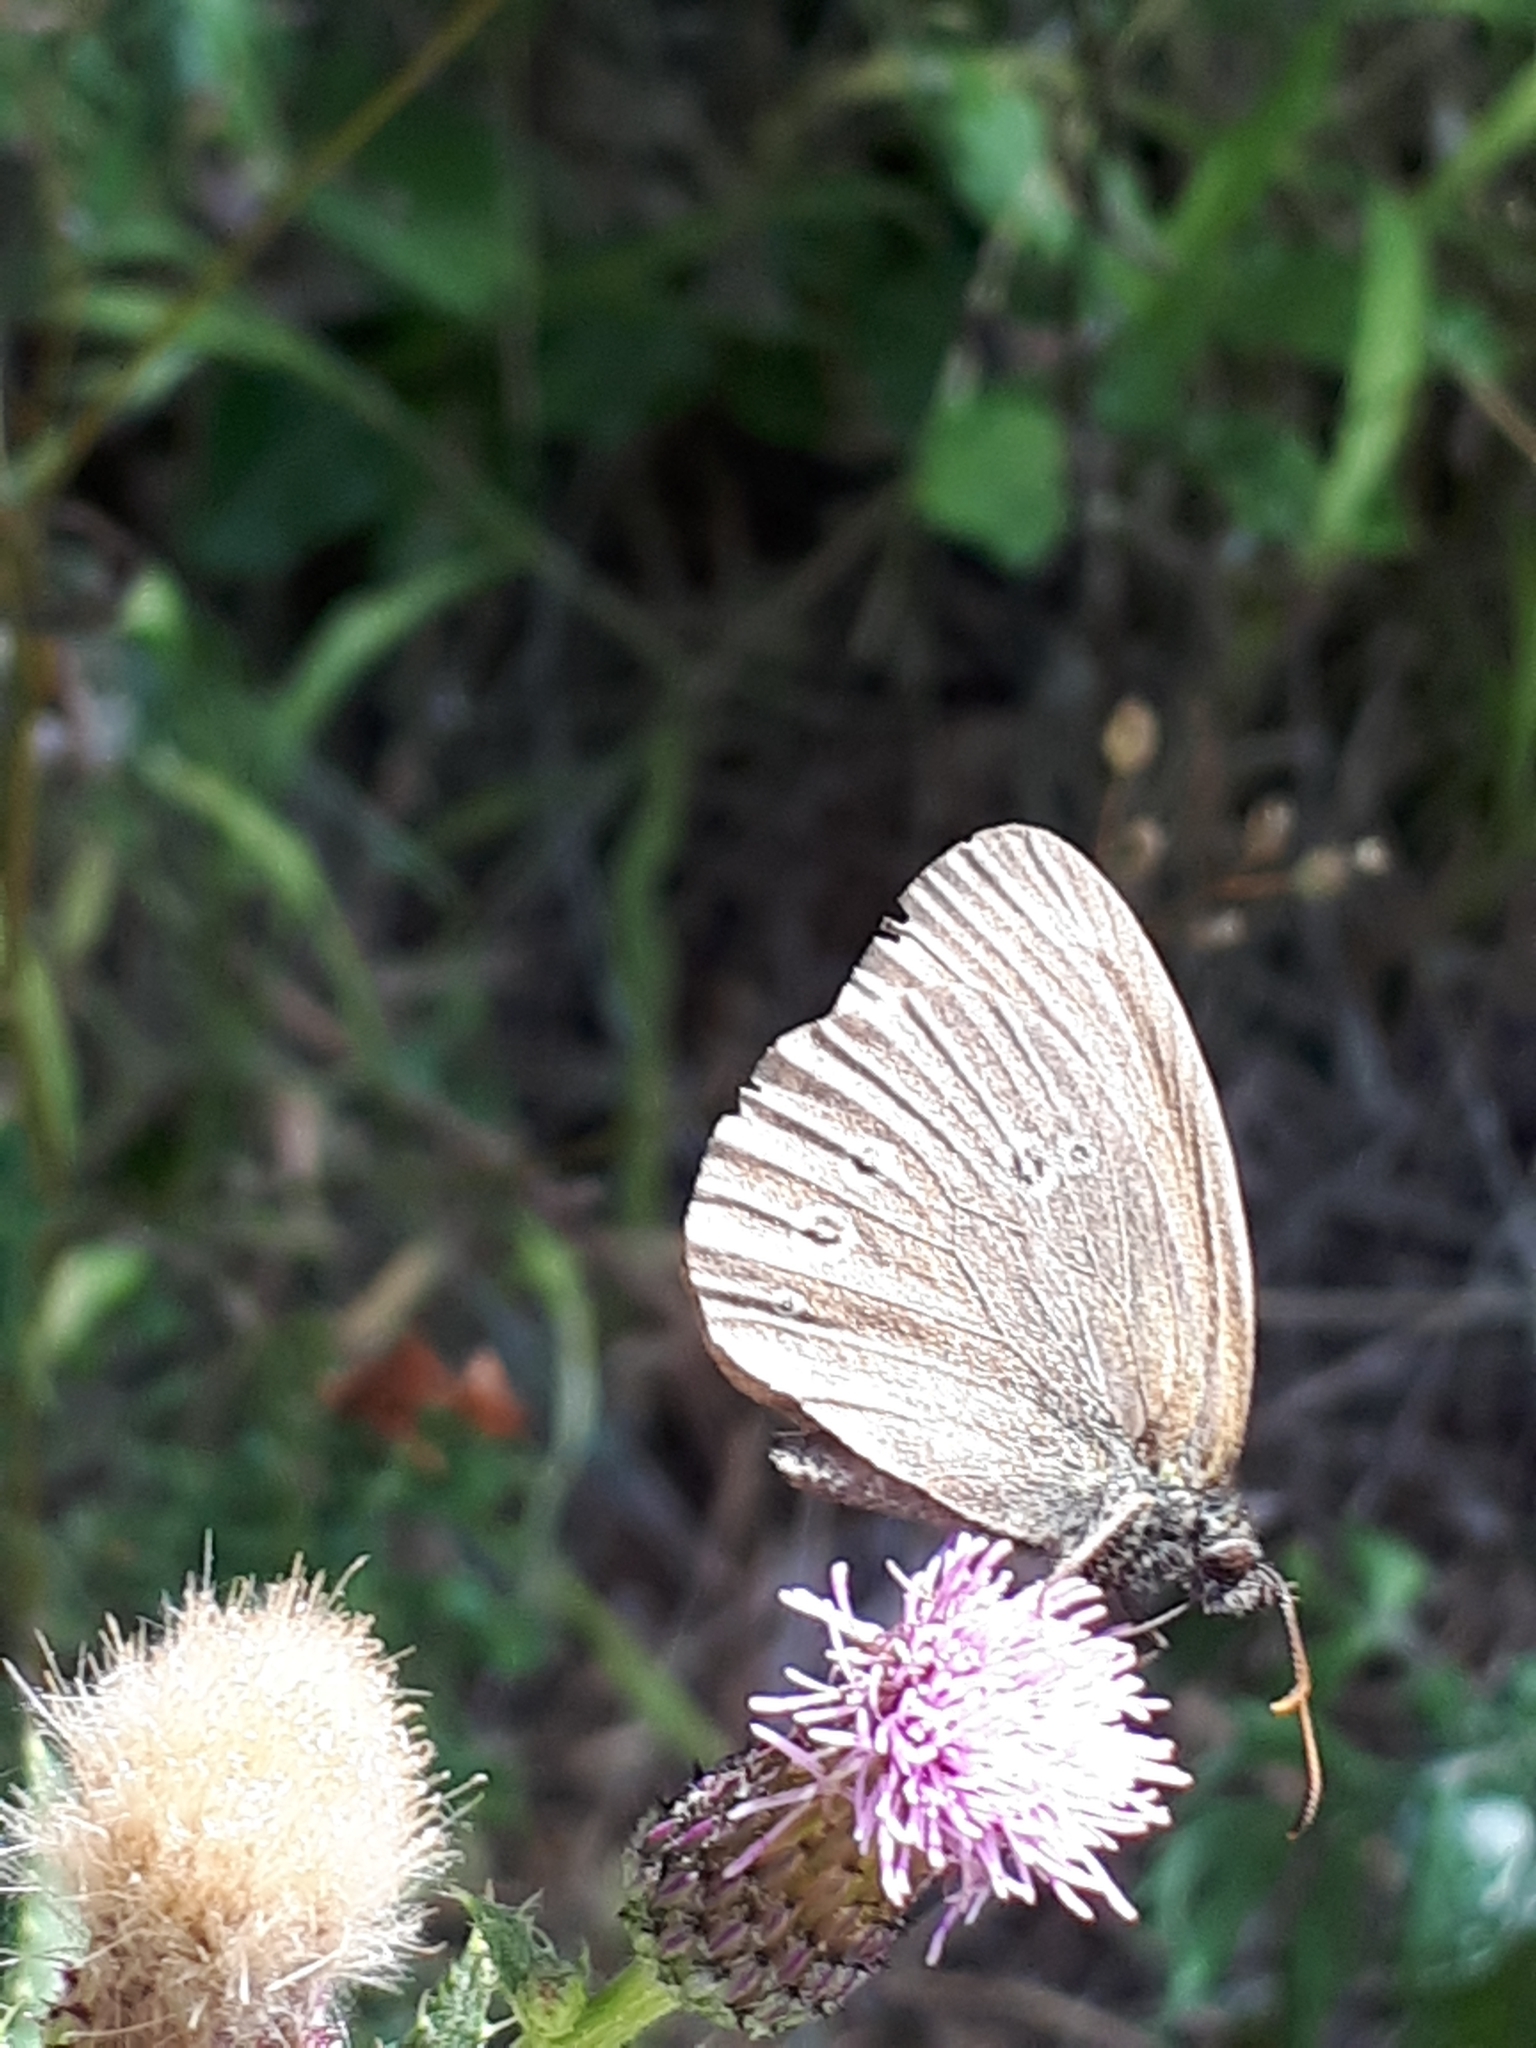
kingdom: Animalia
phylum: Arthropoda
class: Insecta
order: Lepidoptera
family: Nymphalidae
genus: Aphantopus
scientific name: Aphantopus hyperantus
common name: Ringlet
